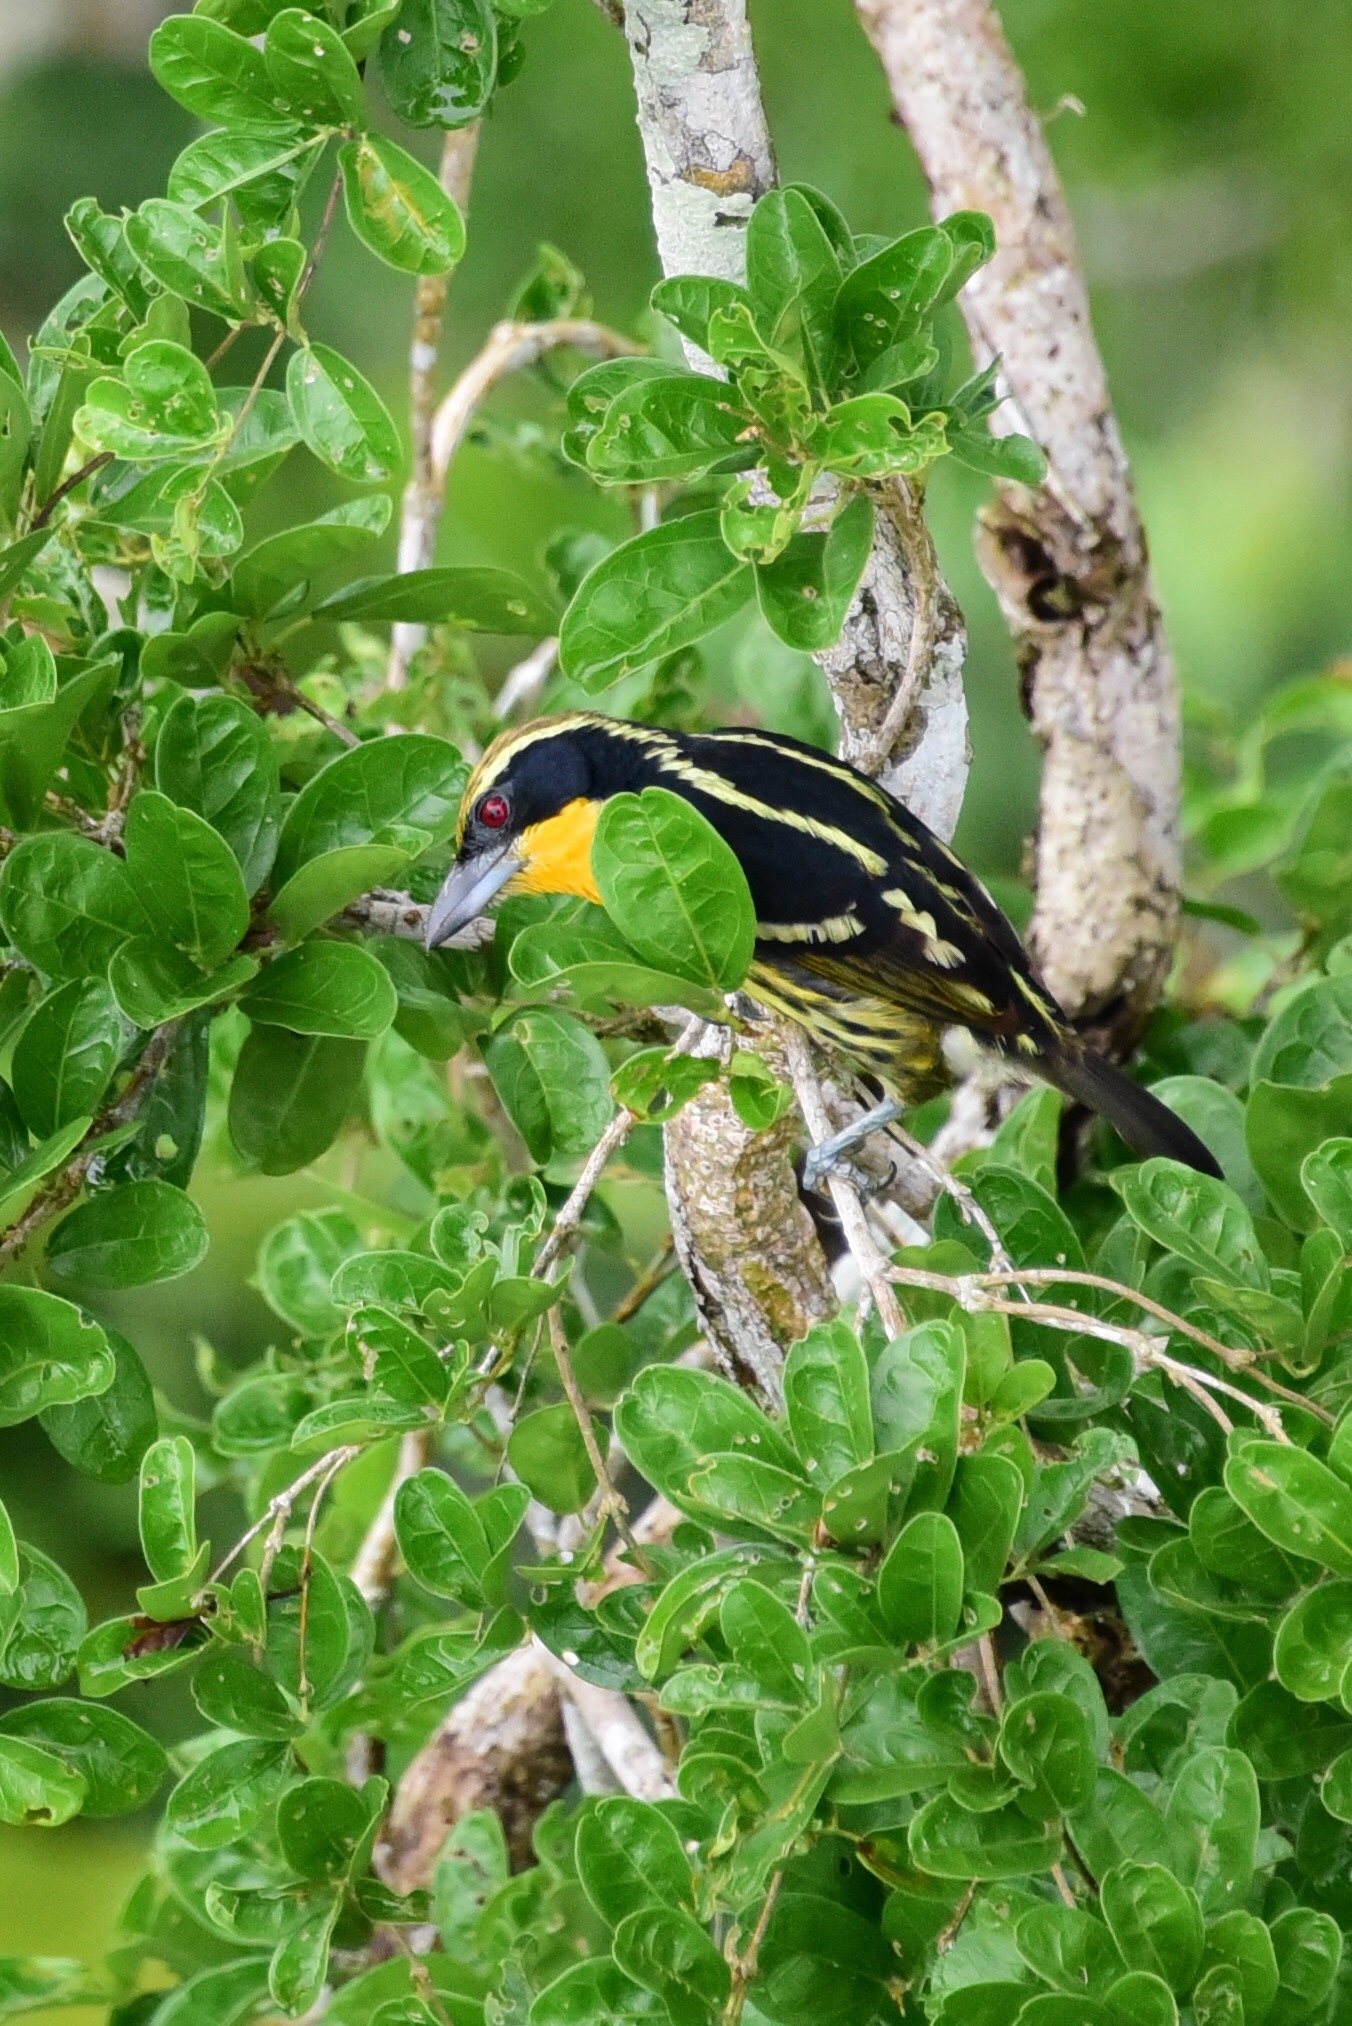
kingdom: Animalia
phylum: Chordata
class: Aves
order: Piciformes
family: Capitonidae
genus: Capito
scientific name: Capito auratus
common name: Gilded barbet
